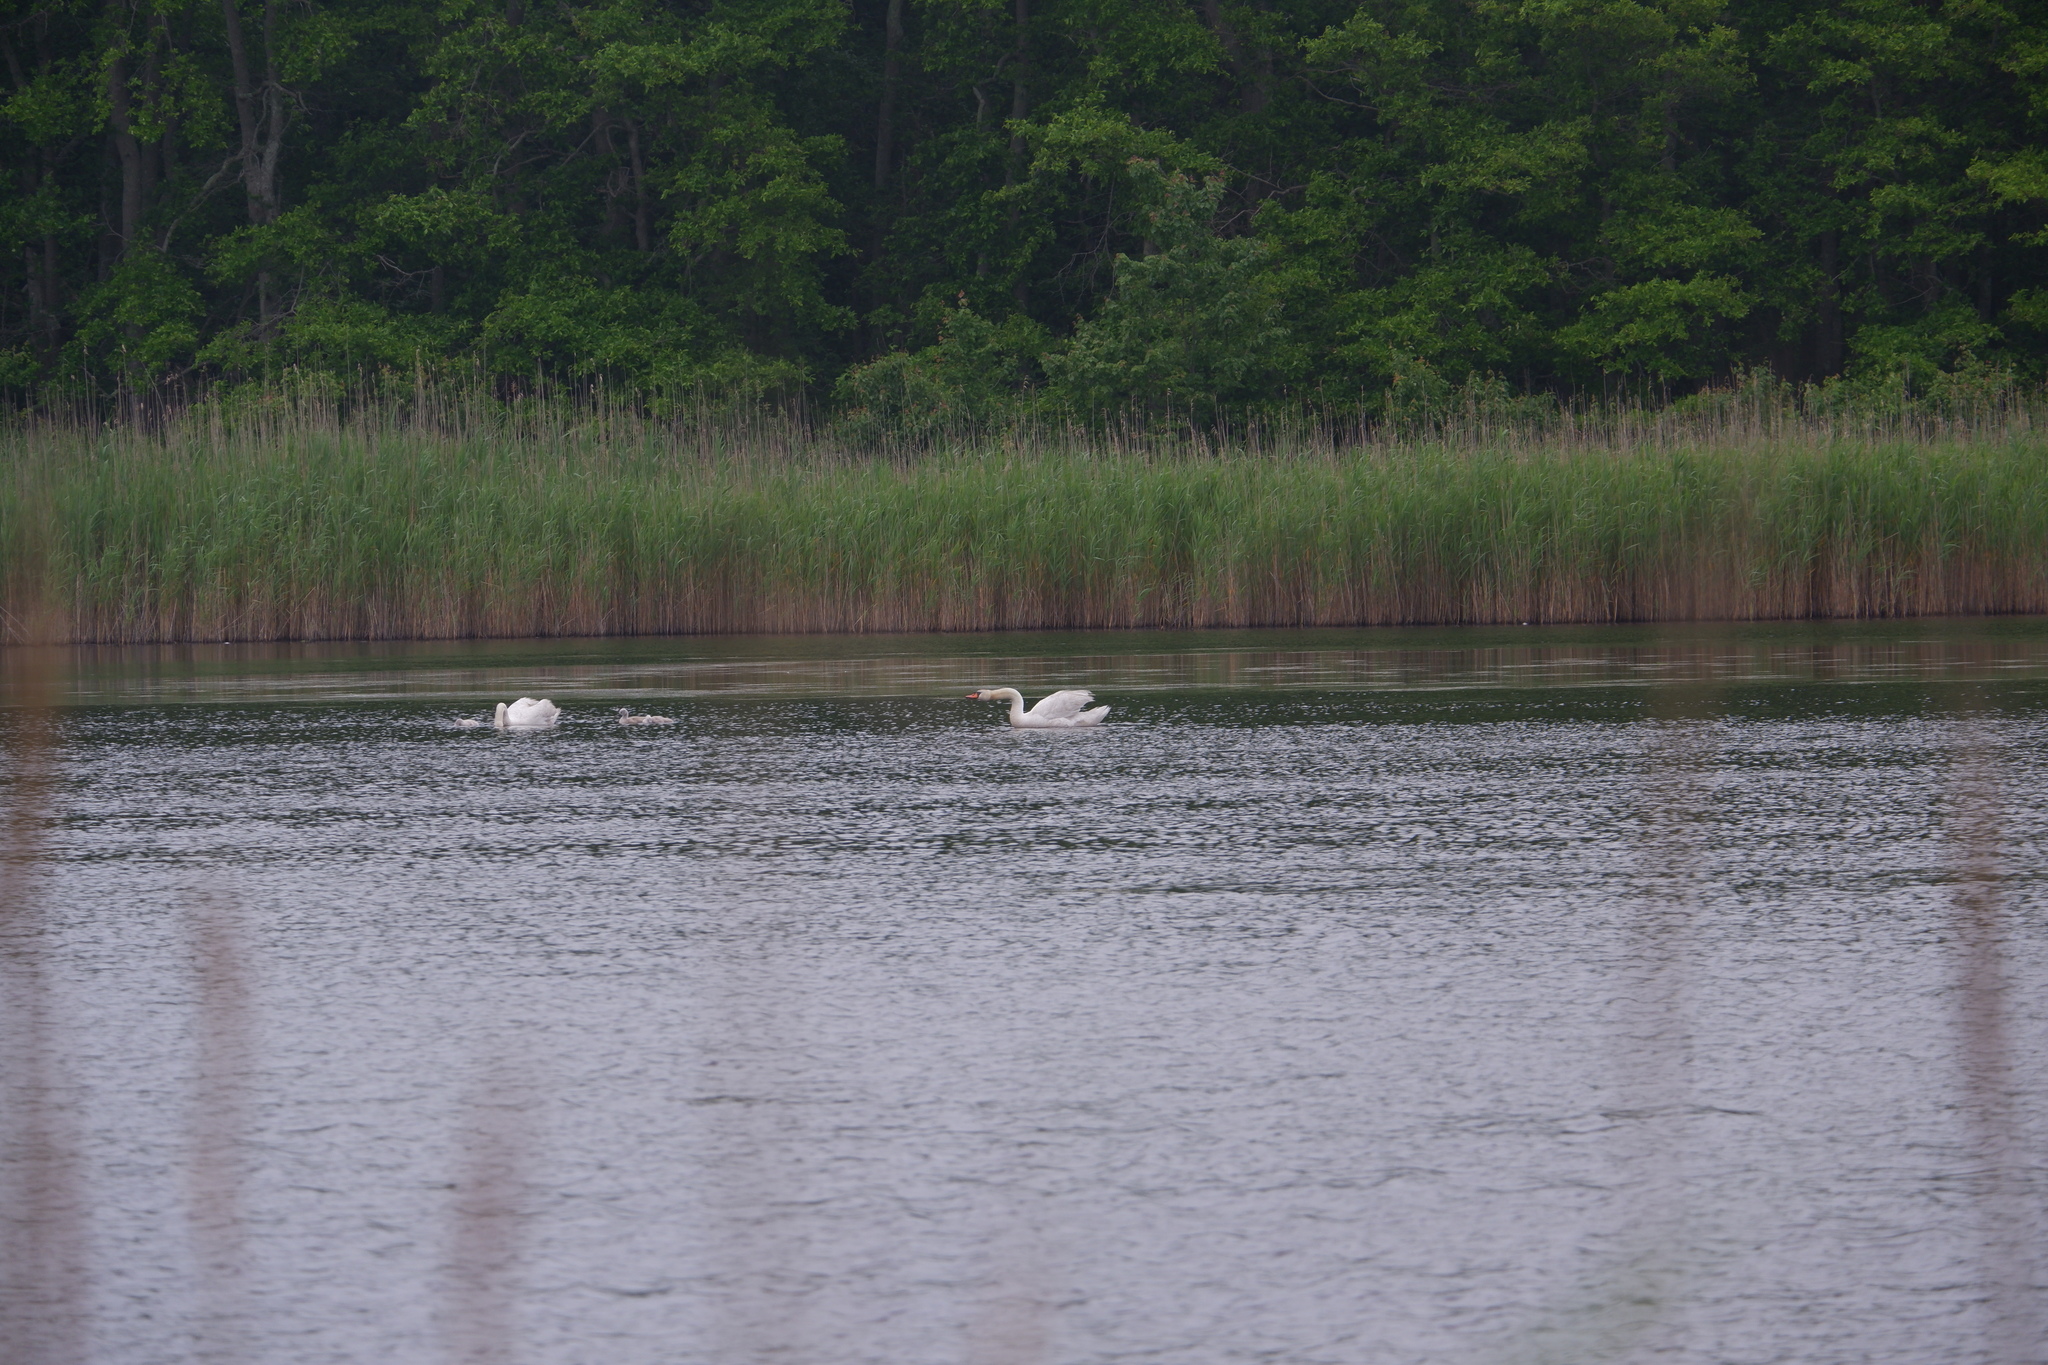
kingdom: Animalia
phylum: Chordata
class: Aves
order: Anseriformes
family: Anatidae
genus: Cygnus
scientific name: Cygnus olor
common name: Mute swan
